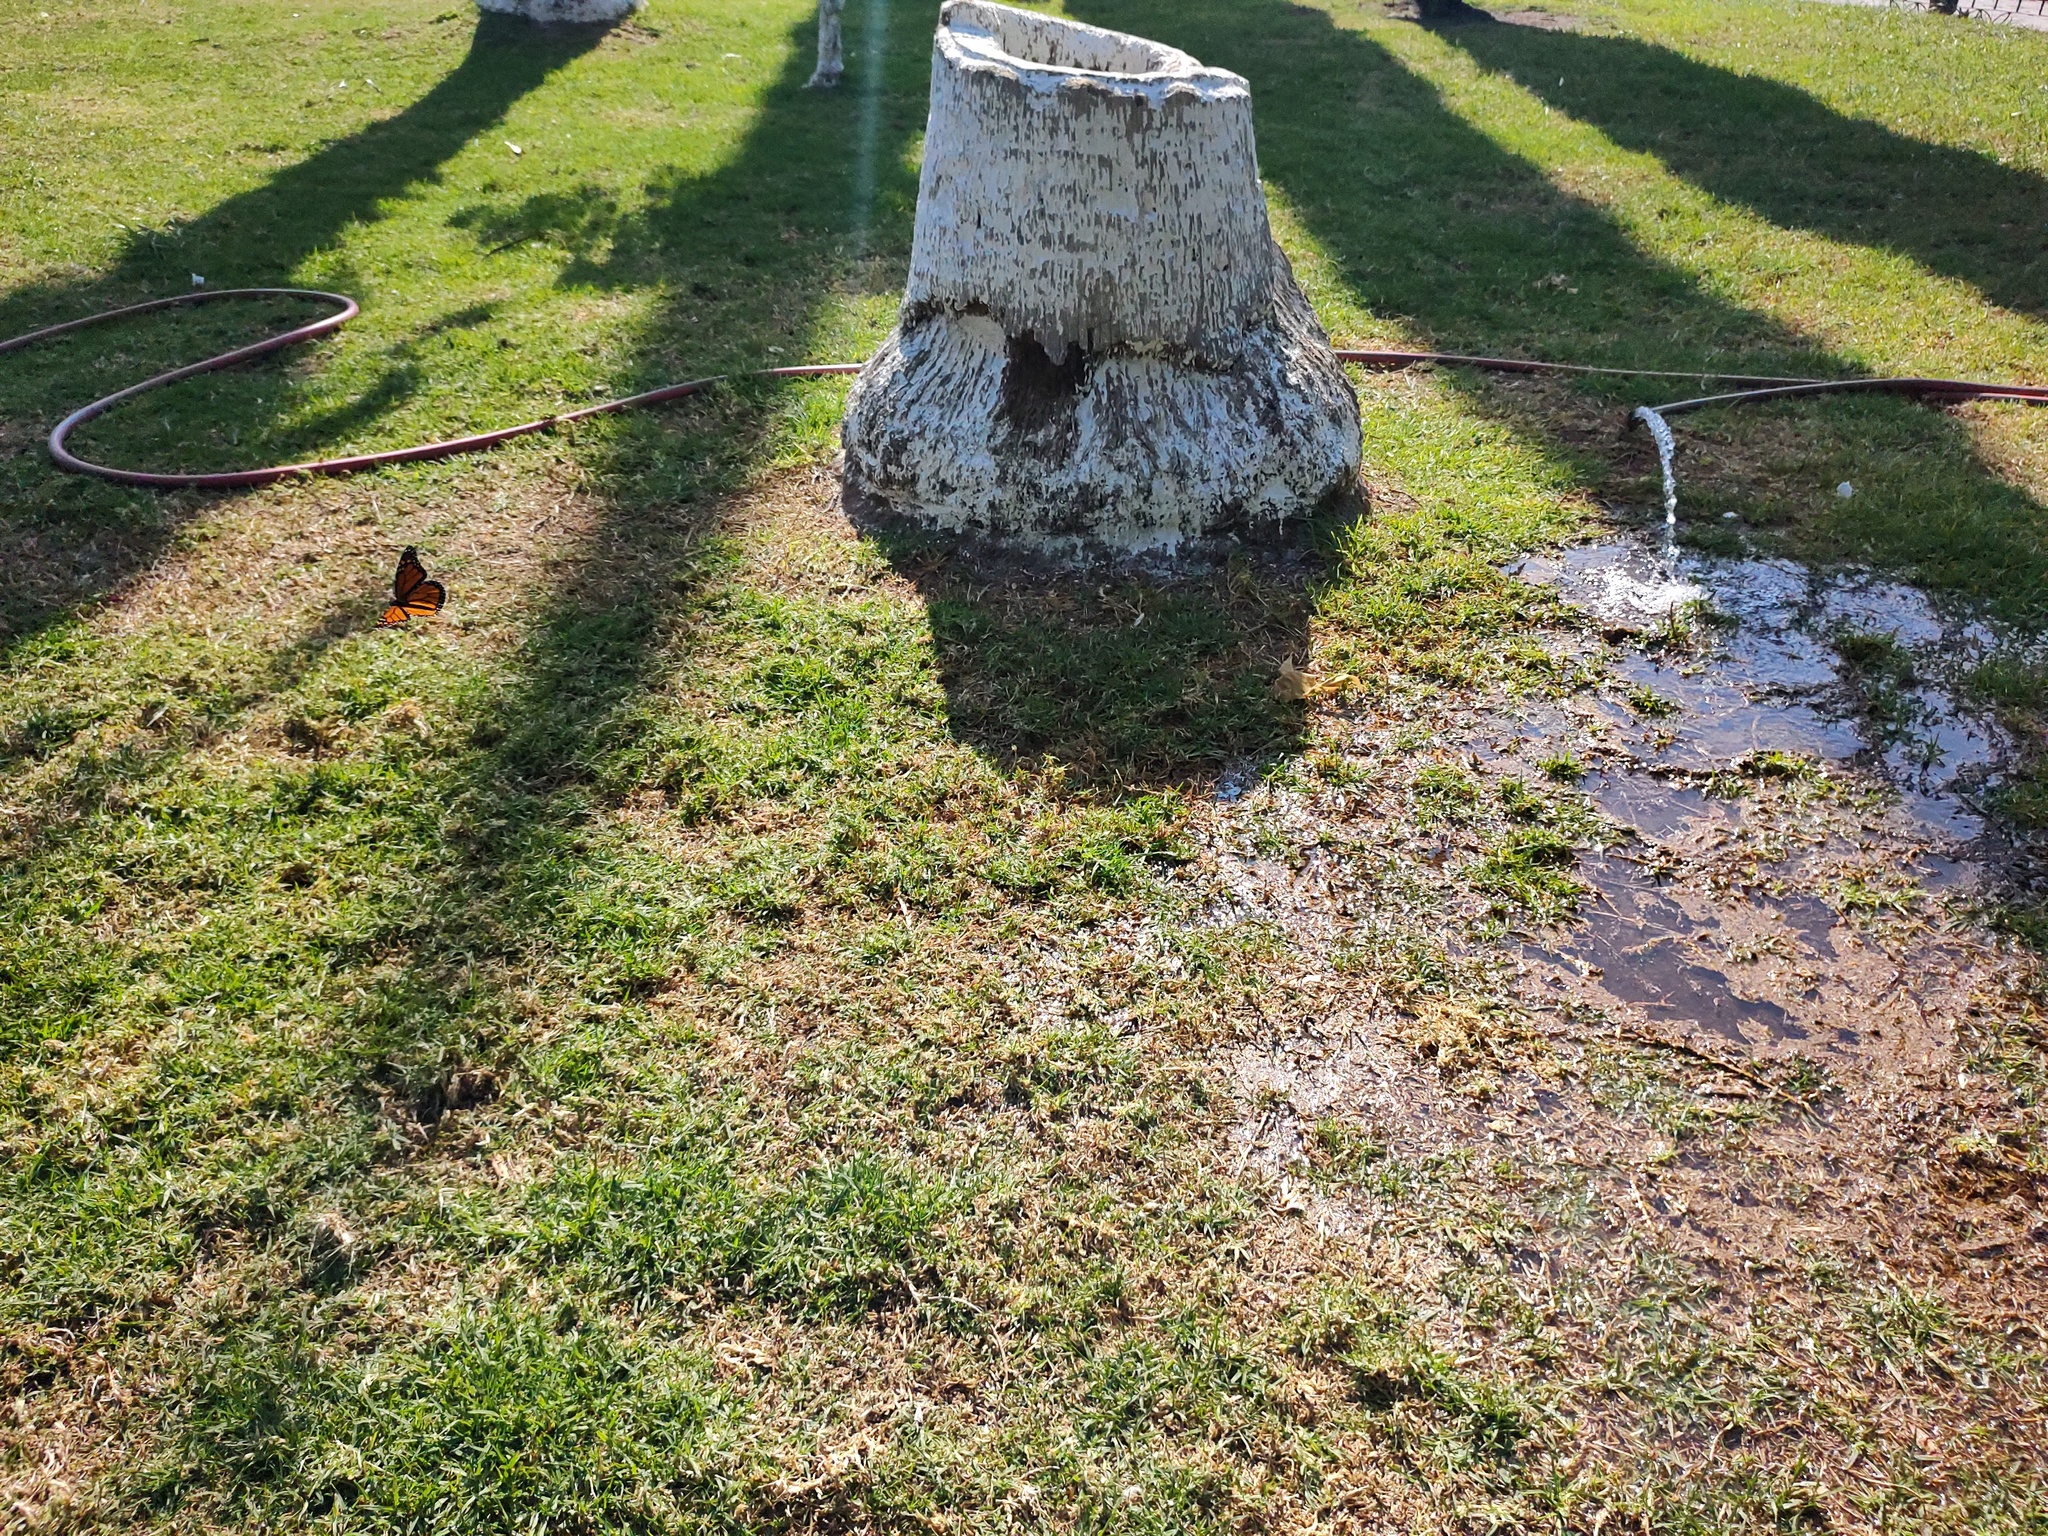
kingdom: Animalia
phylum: Arthropoda
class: Insecta
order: Lepidoptera
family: Nymphalidae
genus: Danaus
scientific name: Danaus plexippus
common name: Monarch
